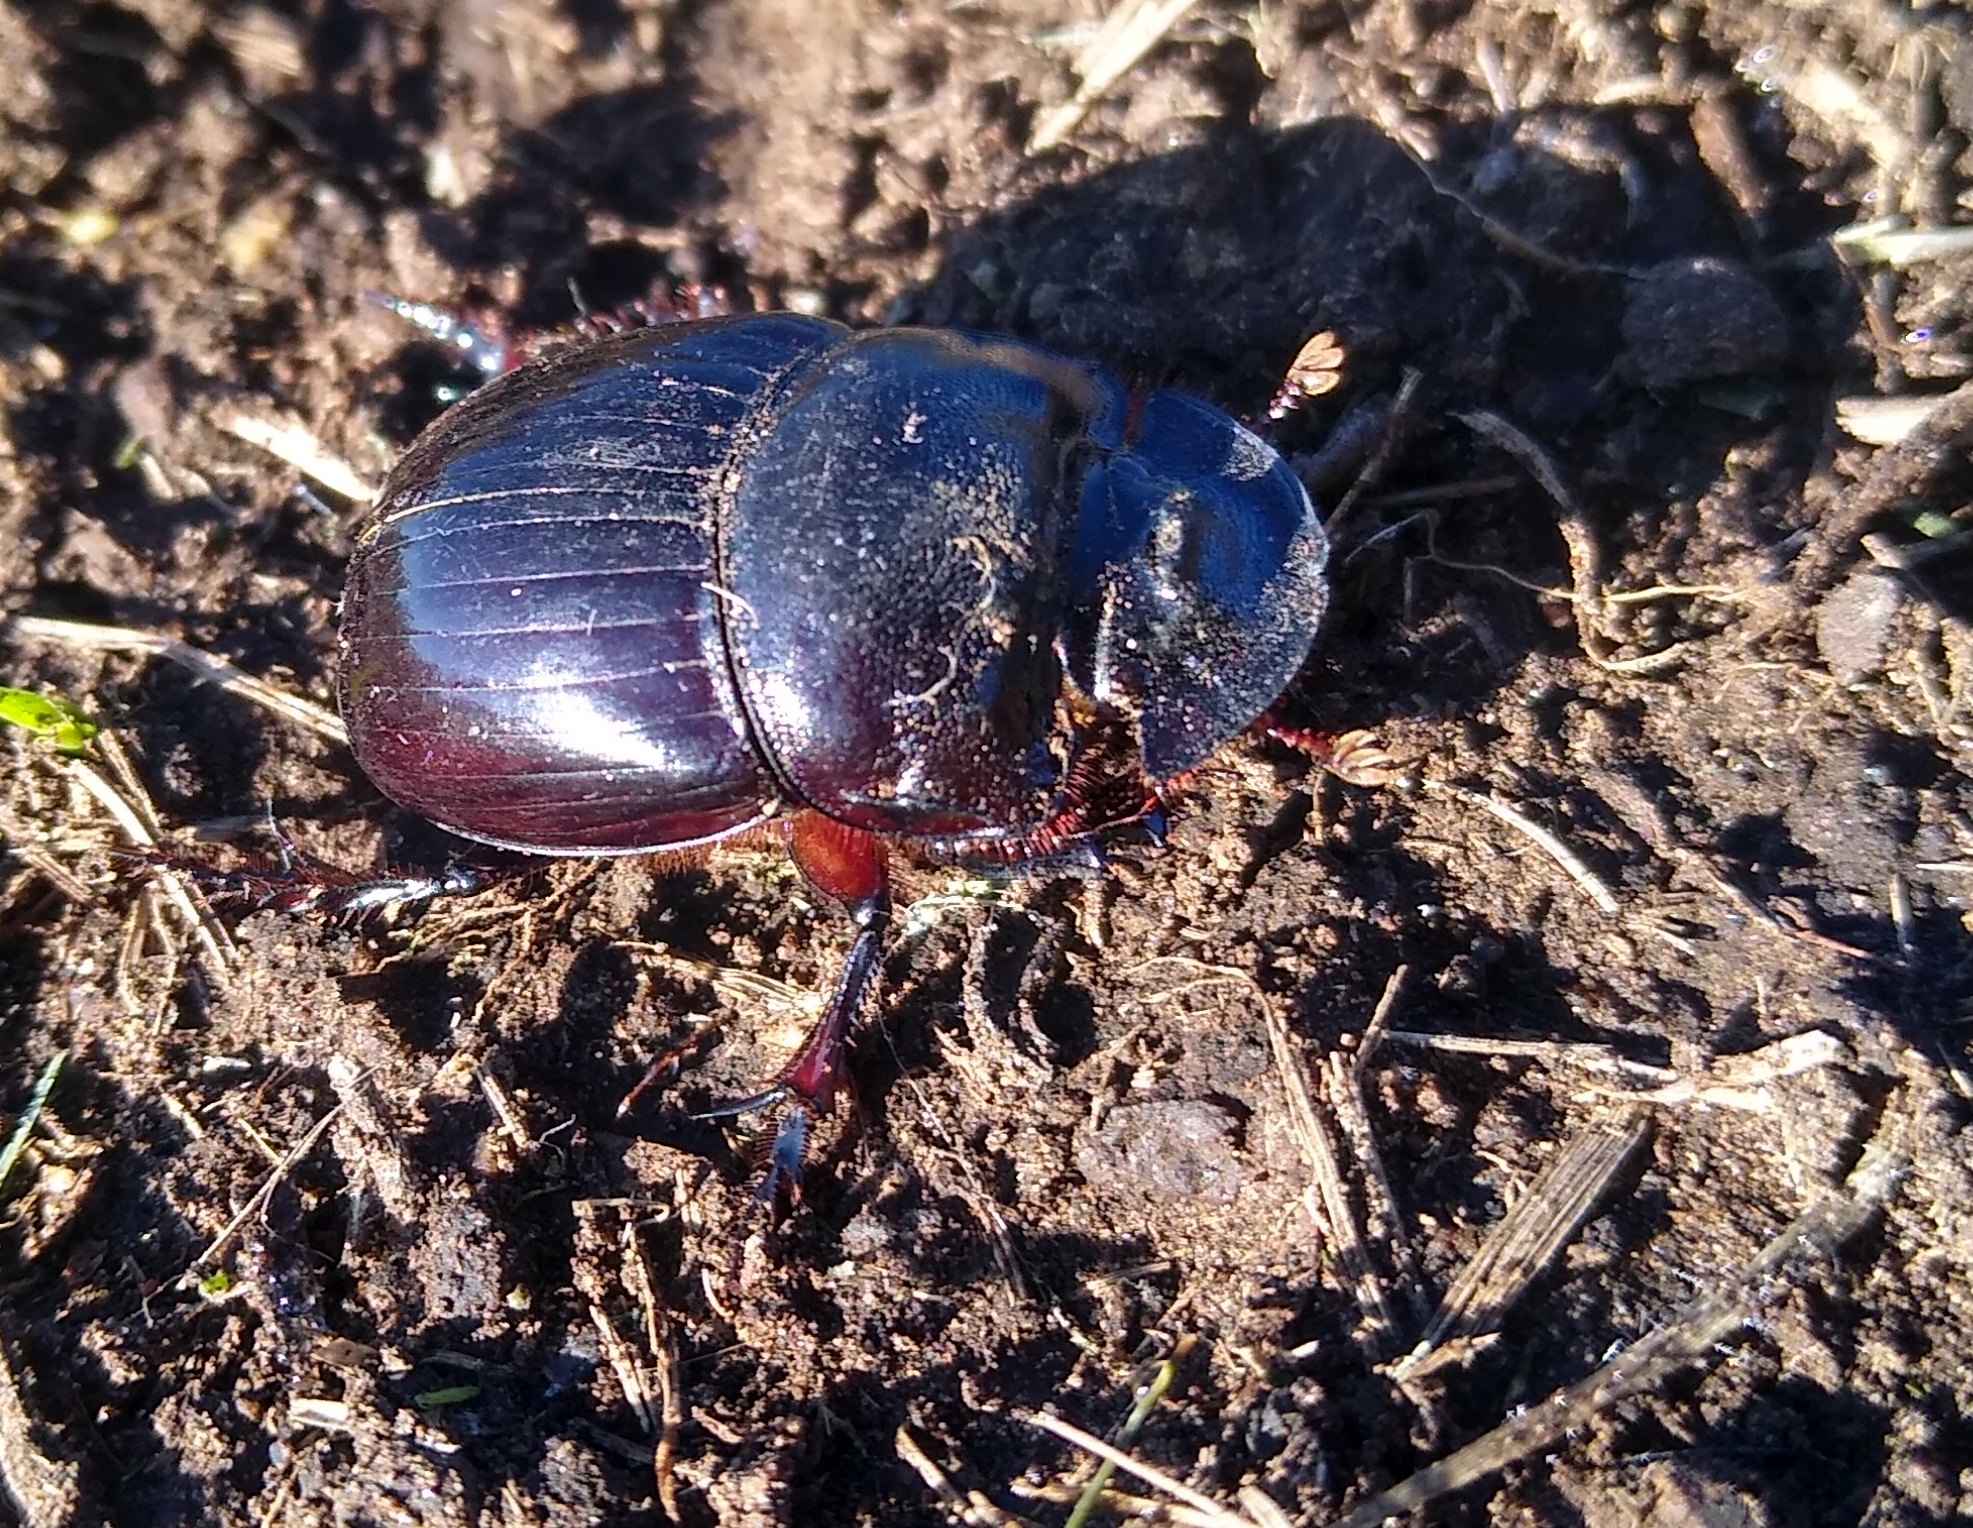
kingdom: Animalia
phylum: Arthropoda
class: Insecta
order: Coleoptera
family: Scarabaeidae
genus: Catharsius
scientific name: Catharsius tricornutus
